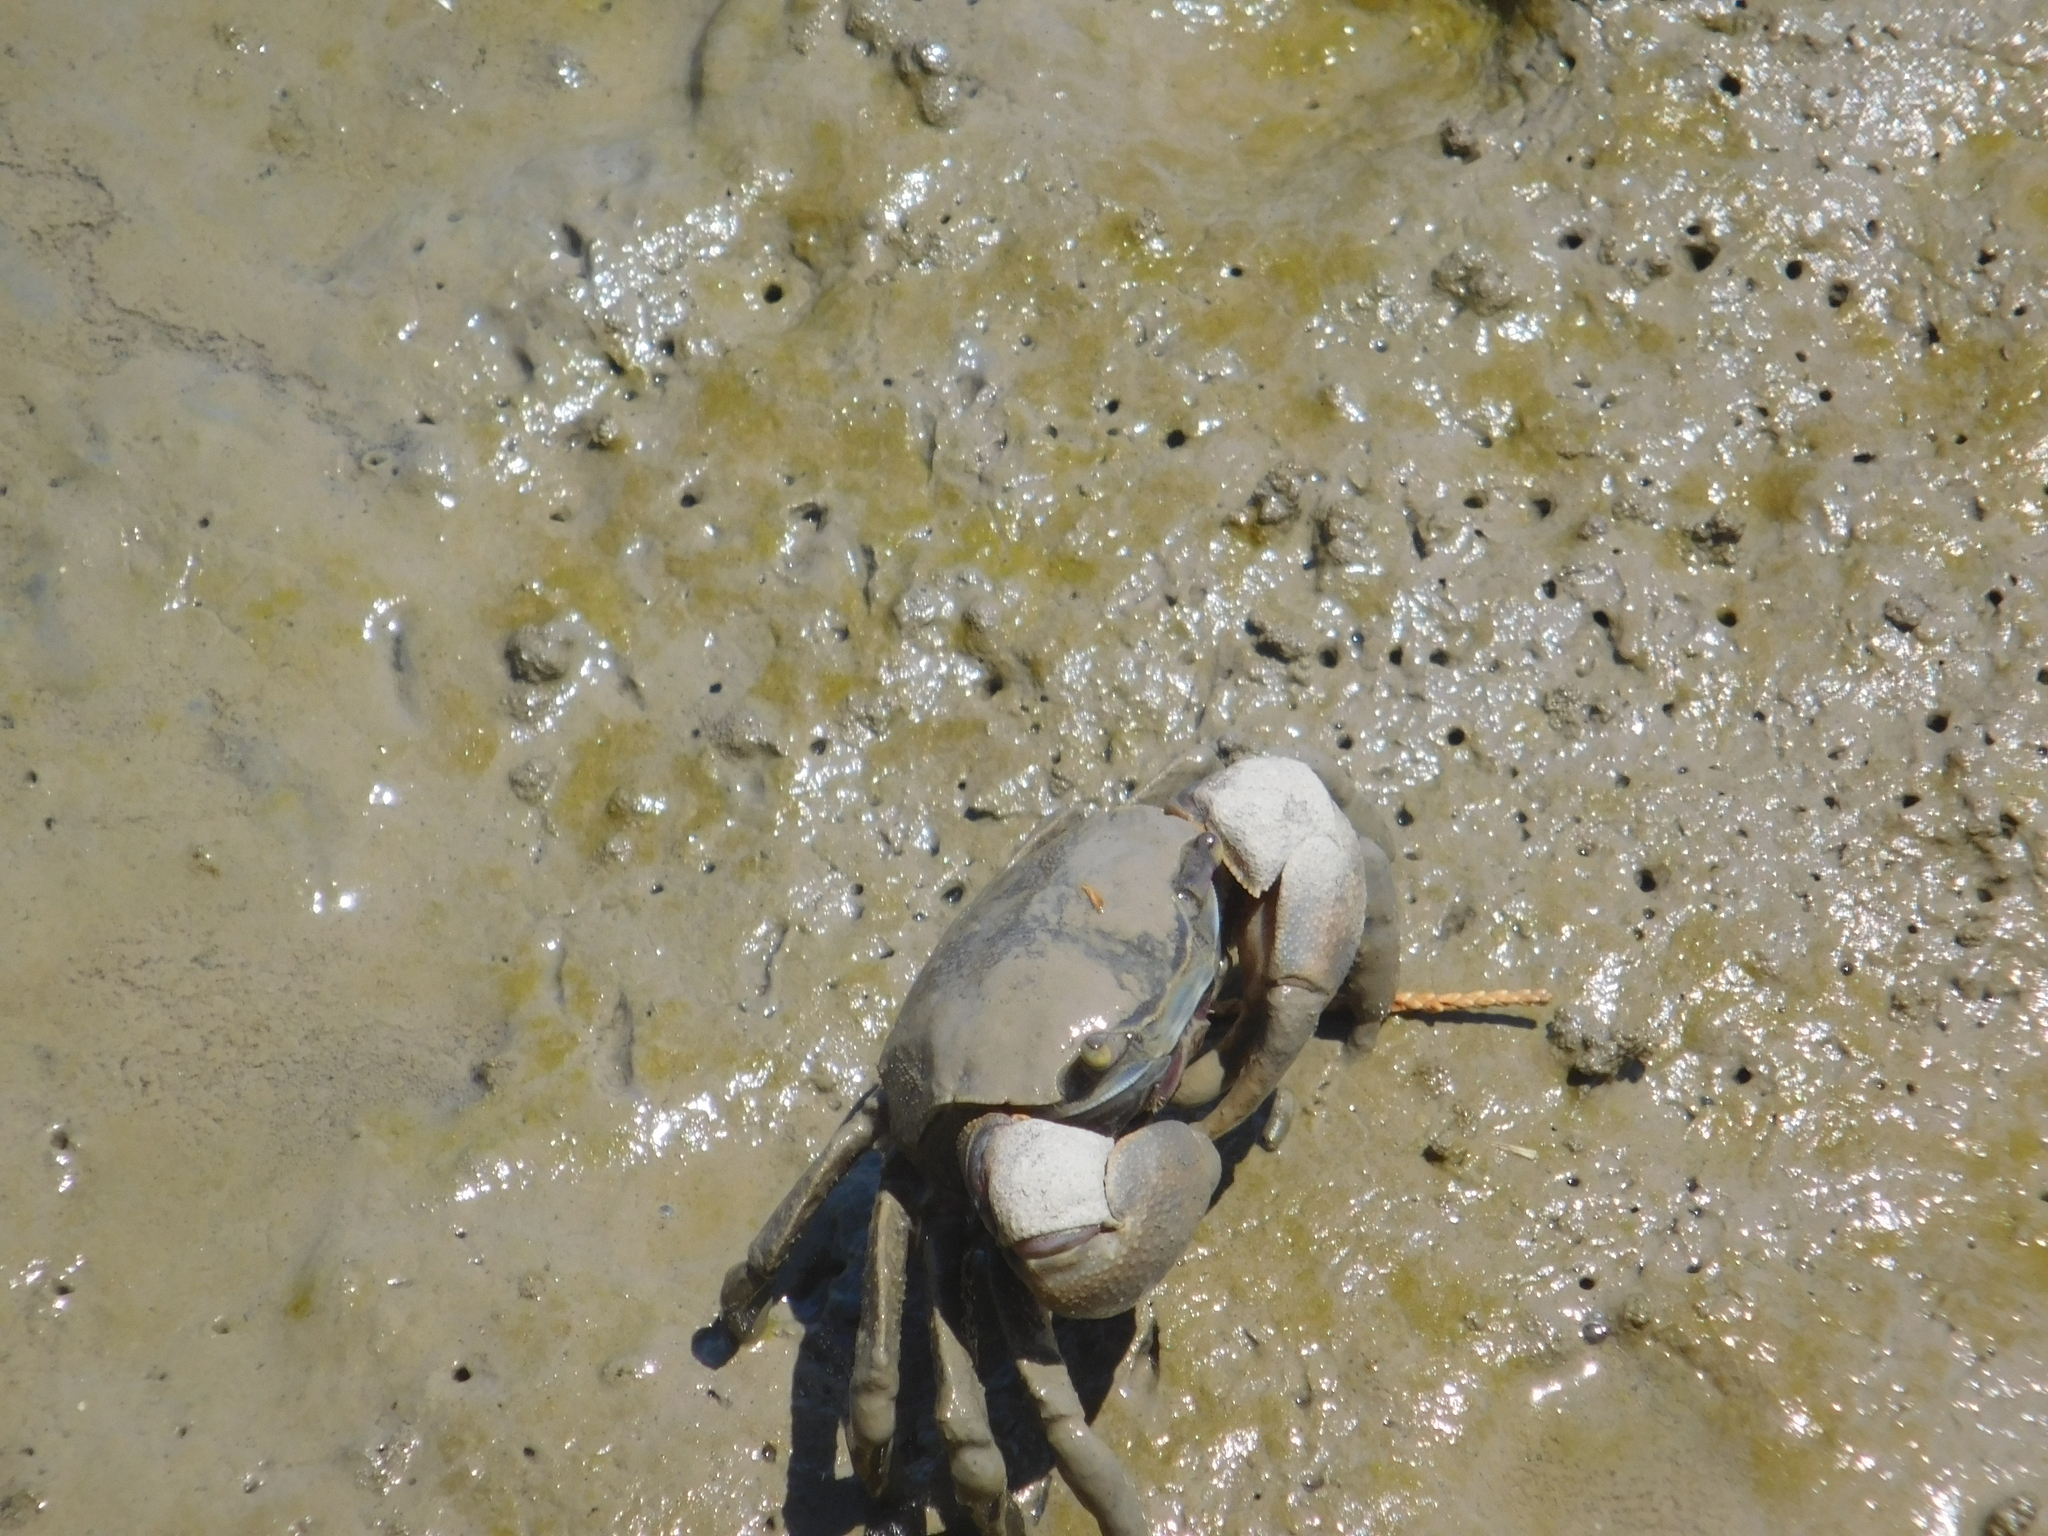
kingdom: Animalia
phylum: Arthropoda
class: Malacostraca
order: Decapoda
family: Varunidae
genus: Neohelice
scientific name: Neohelice granulata
